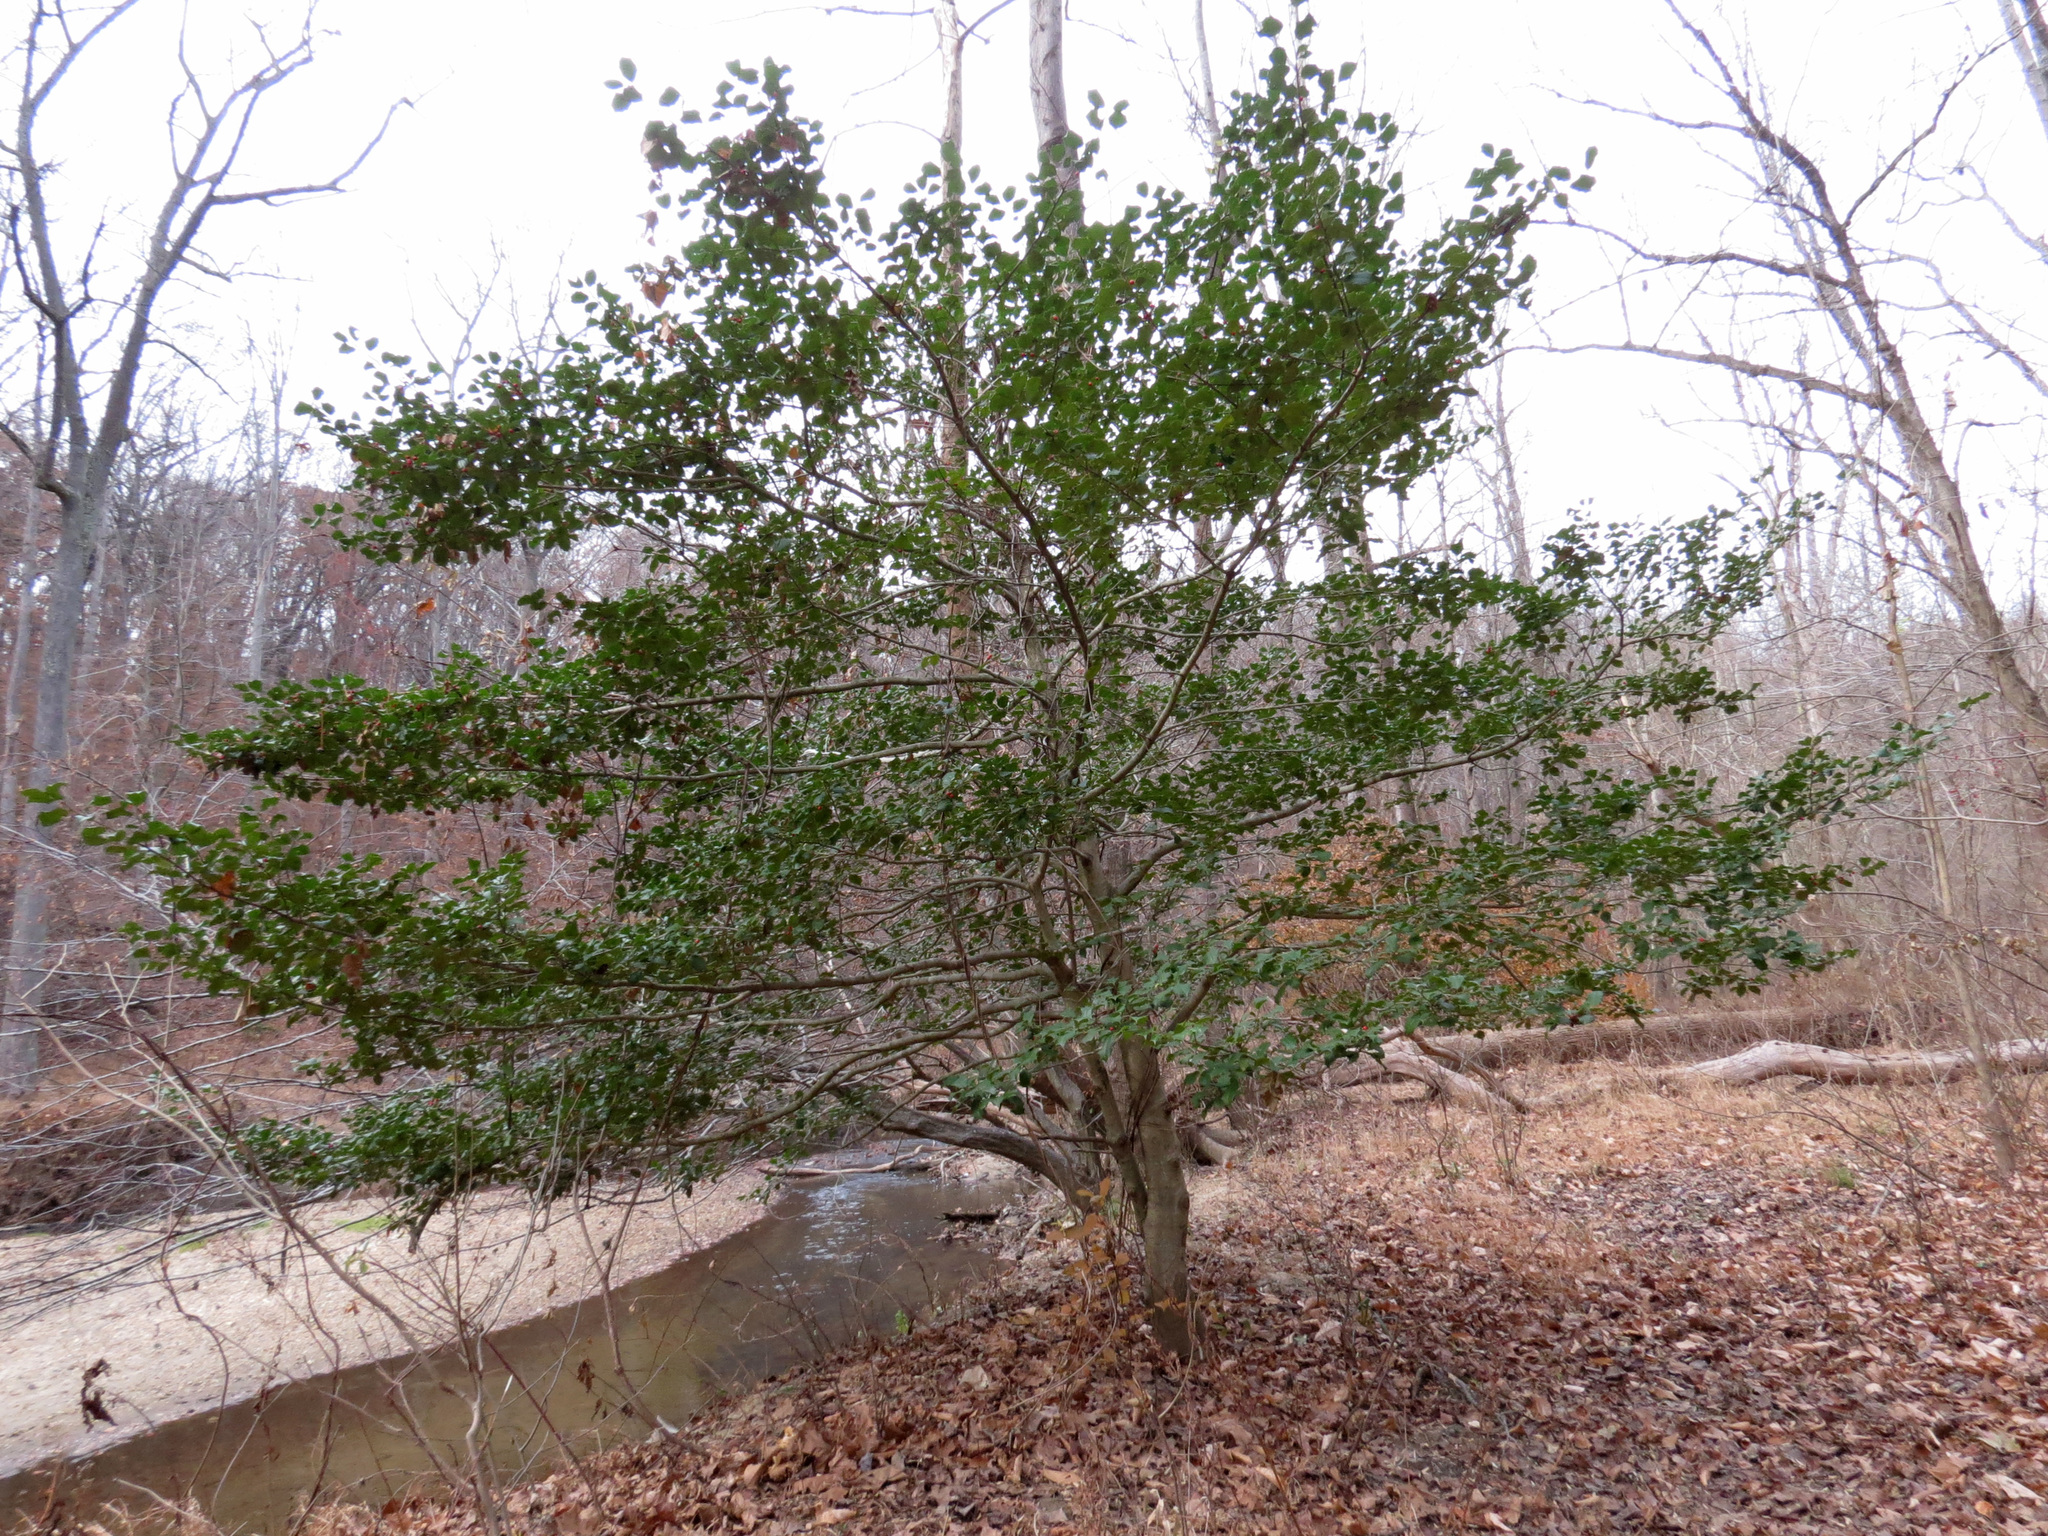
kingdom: Plantae
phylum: Tracheophyta
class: Magnoliopsida
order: Aquifoliales
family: Aquifoliaceae
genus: Ilex
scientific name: Ilex opaca
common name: American holly
